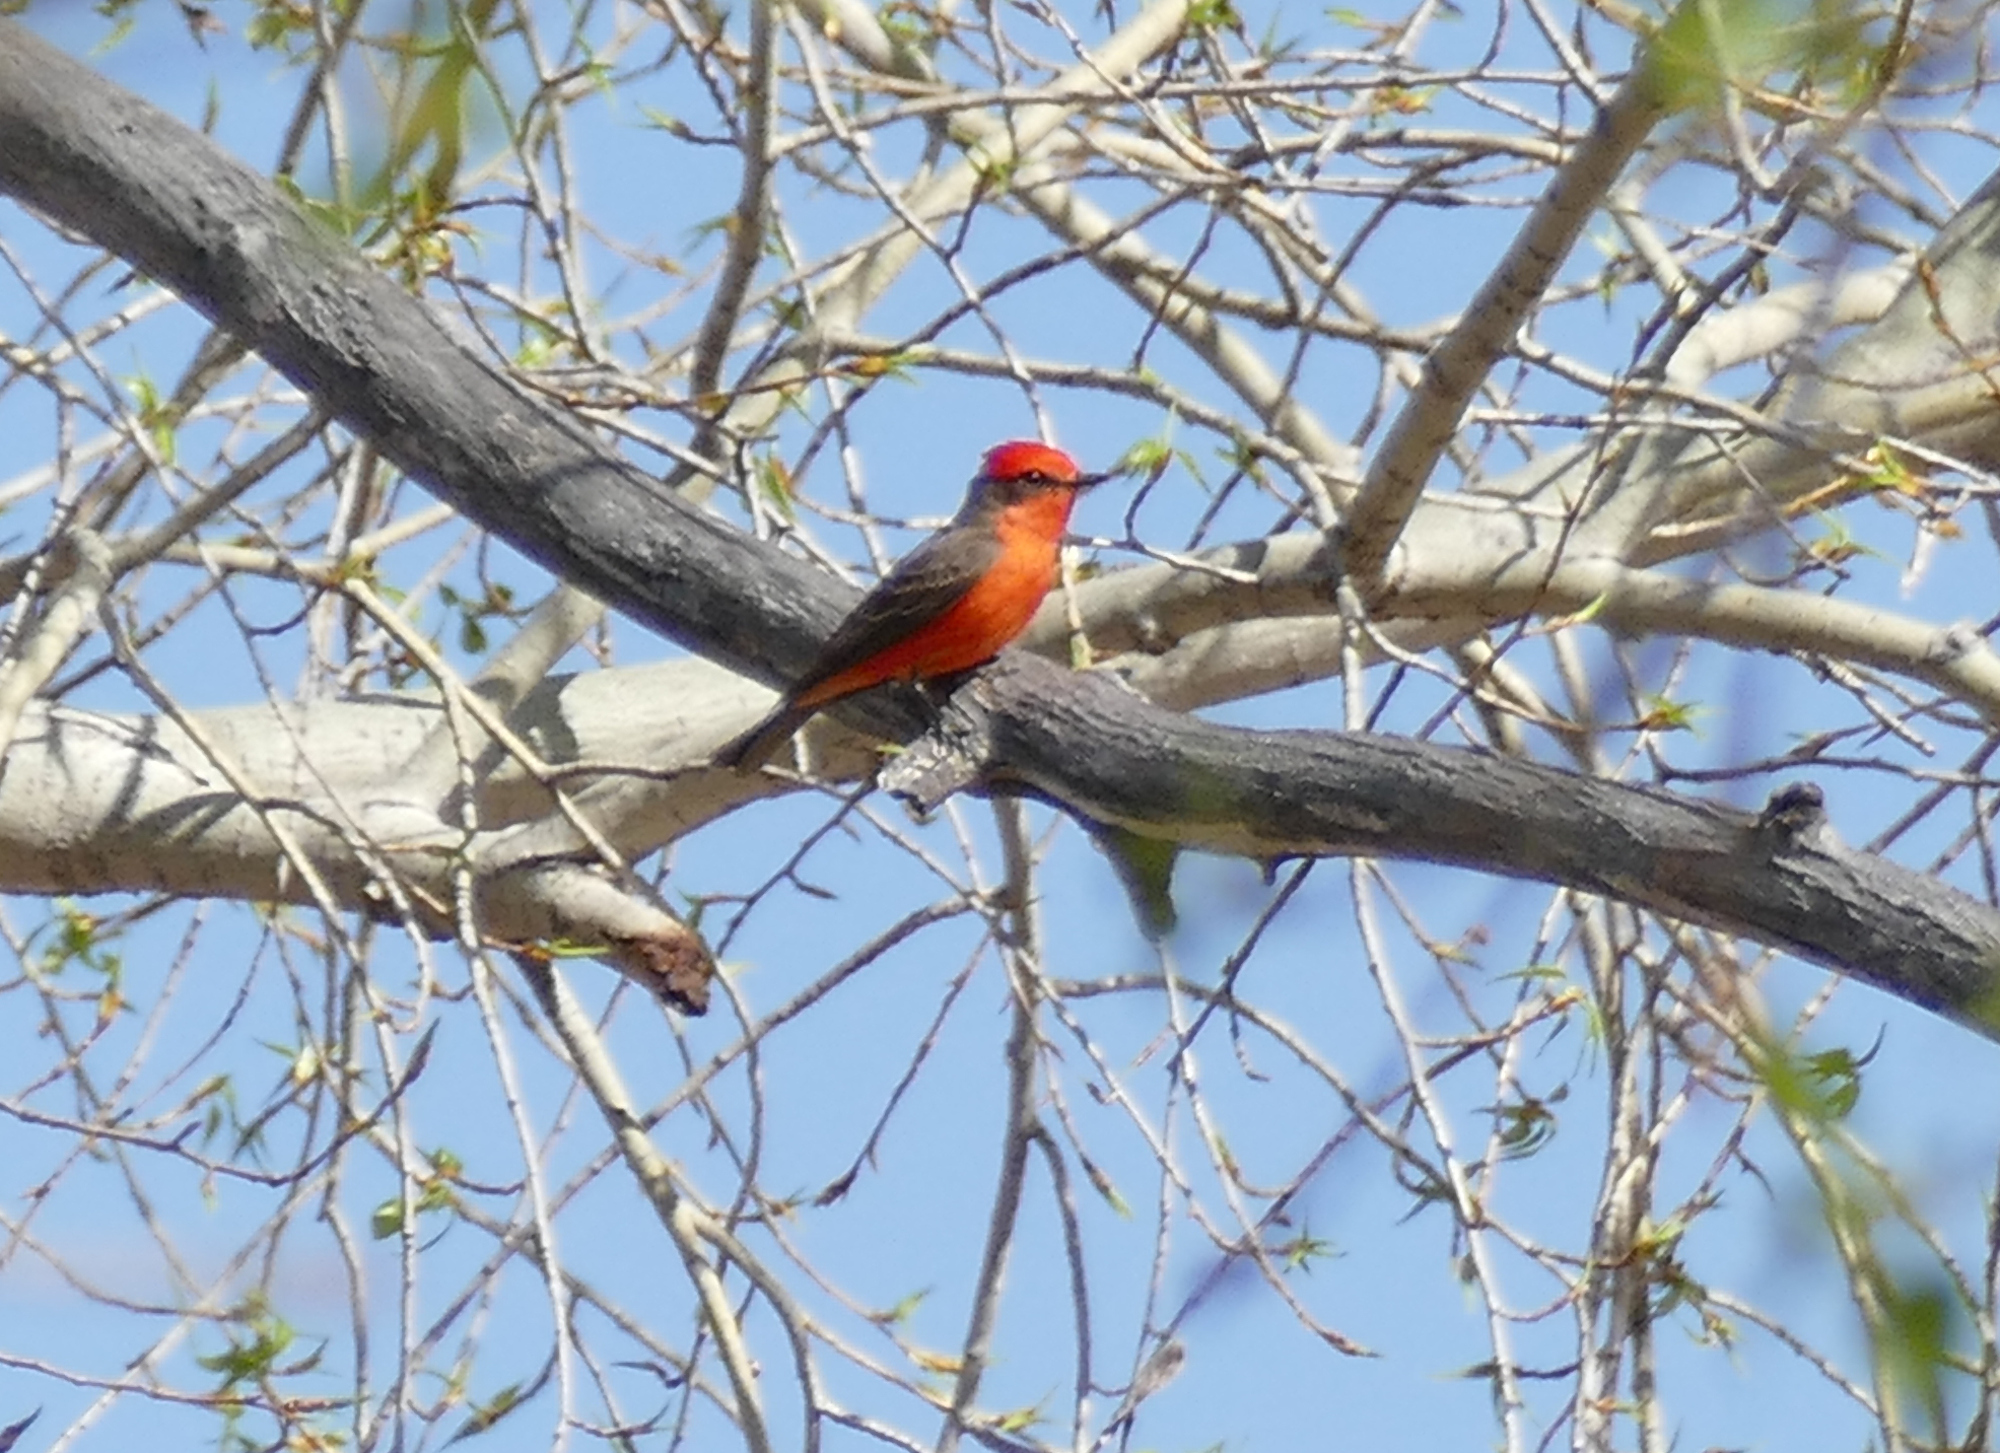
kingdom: Animalia
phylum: Chordata
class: Aves
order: Passeriformes
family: Tyrannidae
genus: Pyrocephalus
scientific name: Pyrocephalus rubinus
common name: Vermilion flycatcher
